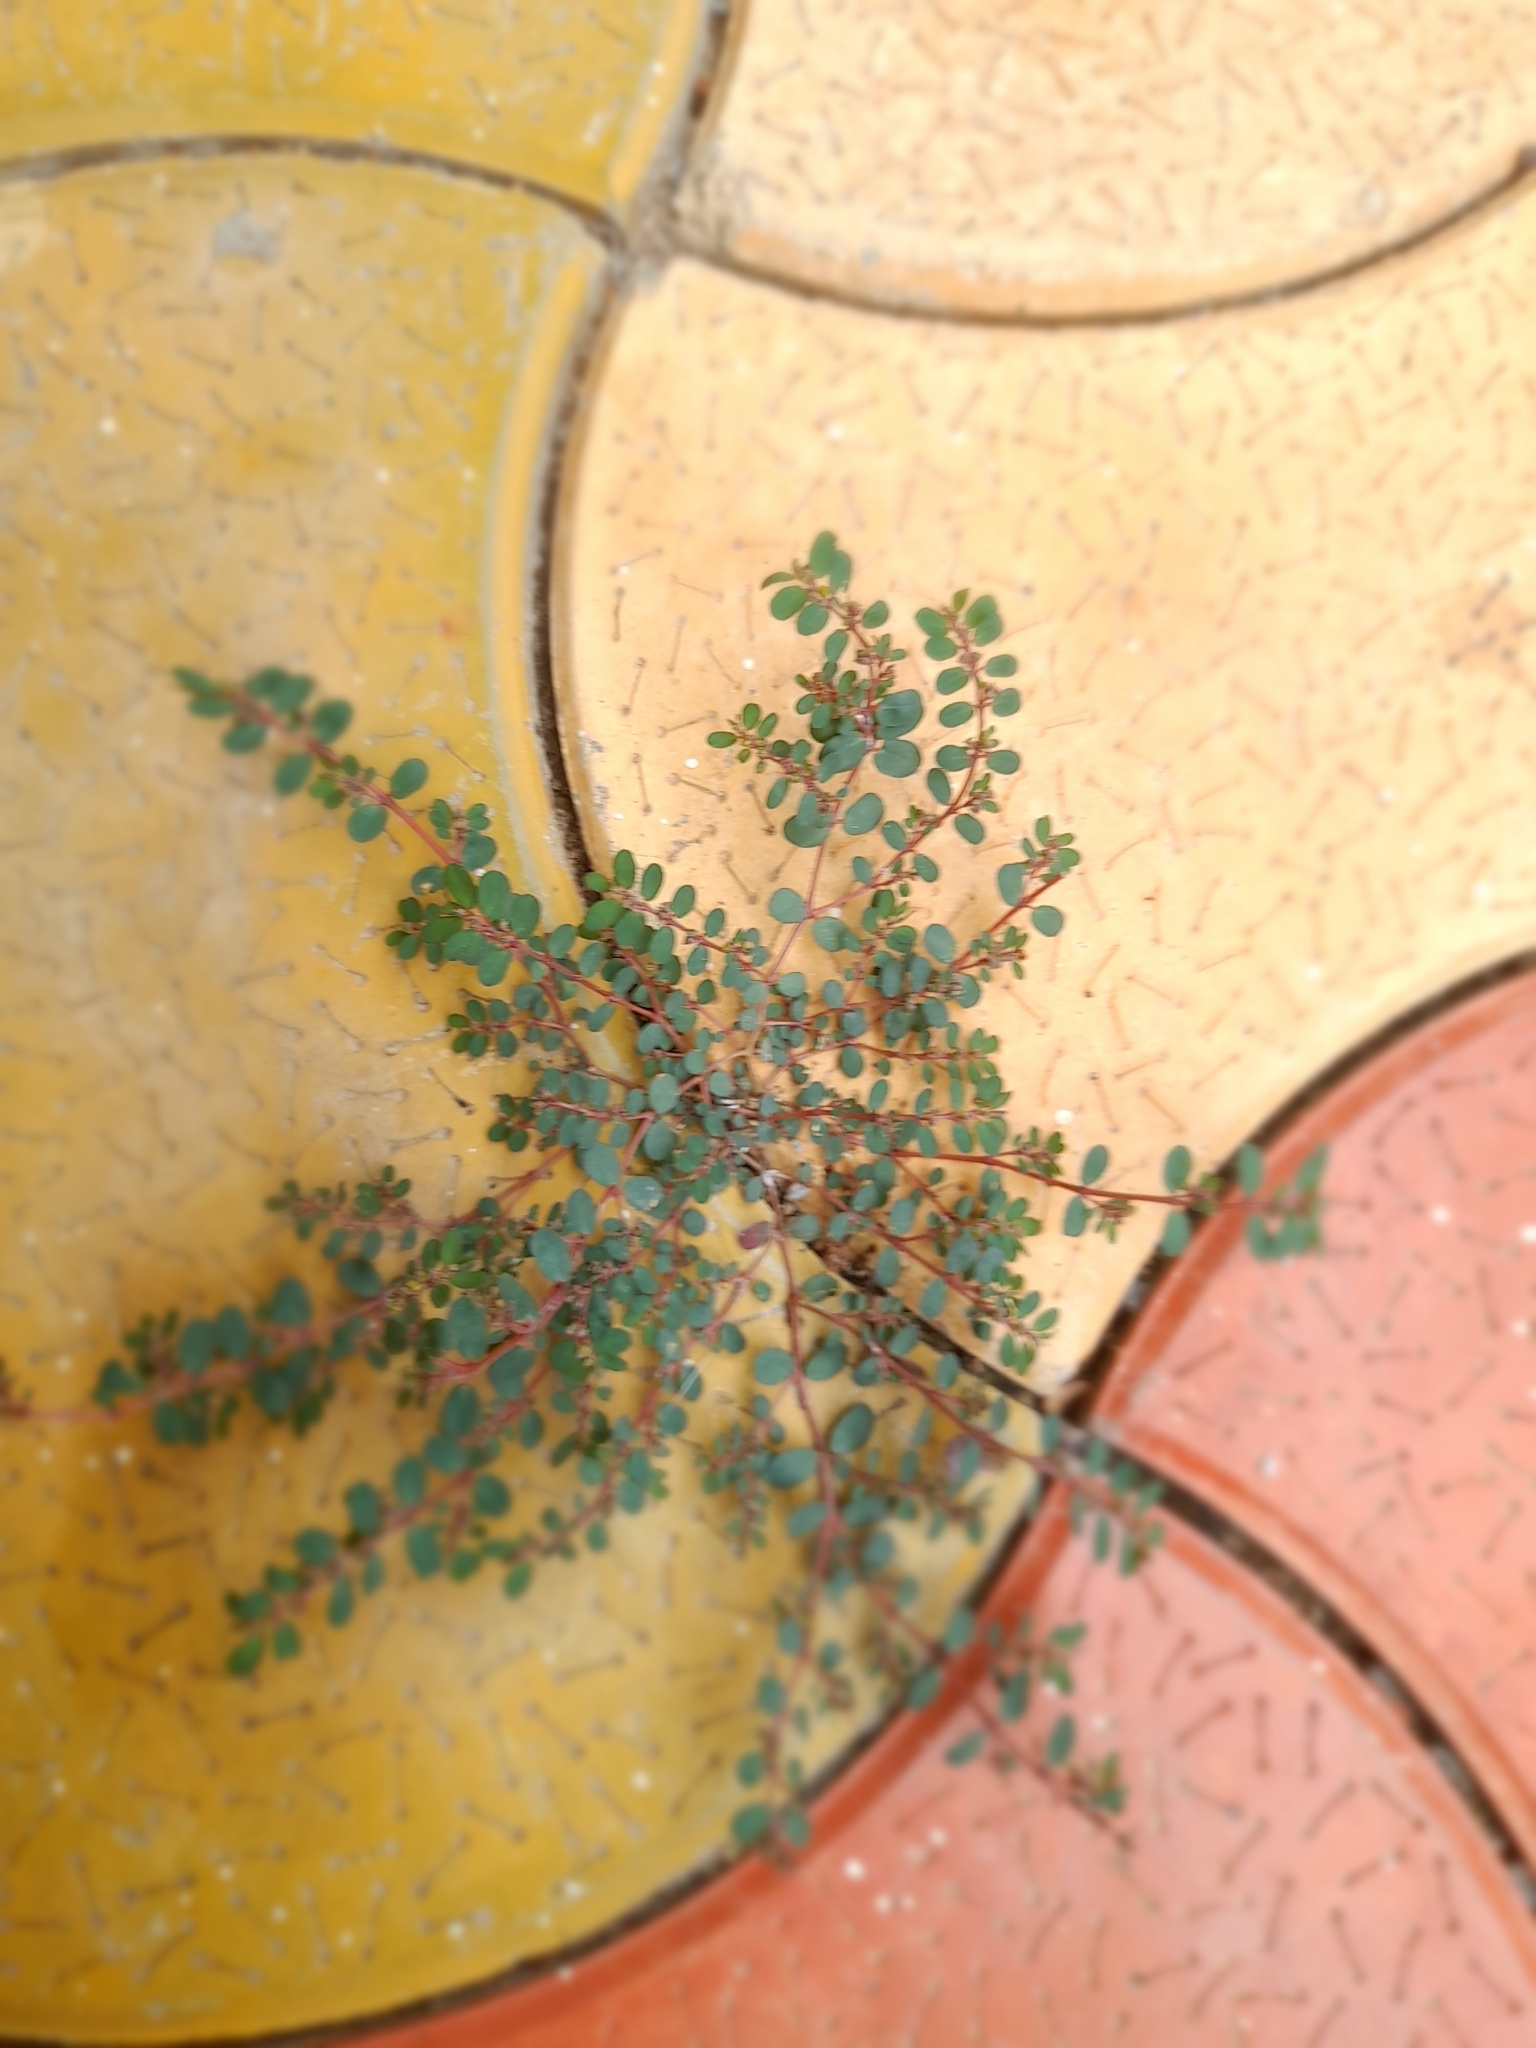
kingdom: Plantae
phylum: Tracheophyta
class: Magnoliopsida
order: Malpighiales
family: Euphorbiaceae
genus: Euphorbia
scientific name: Euphorbia prostrata
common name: Prostrate sandmat
